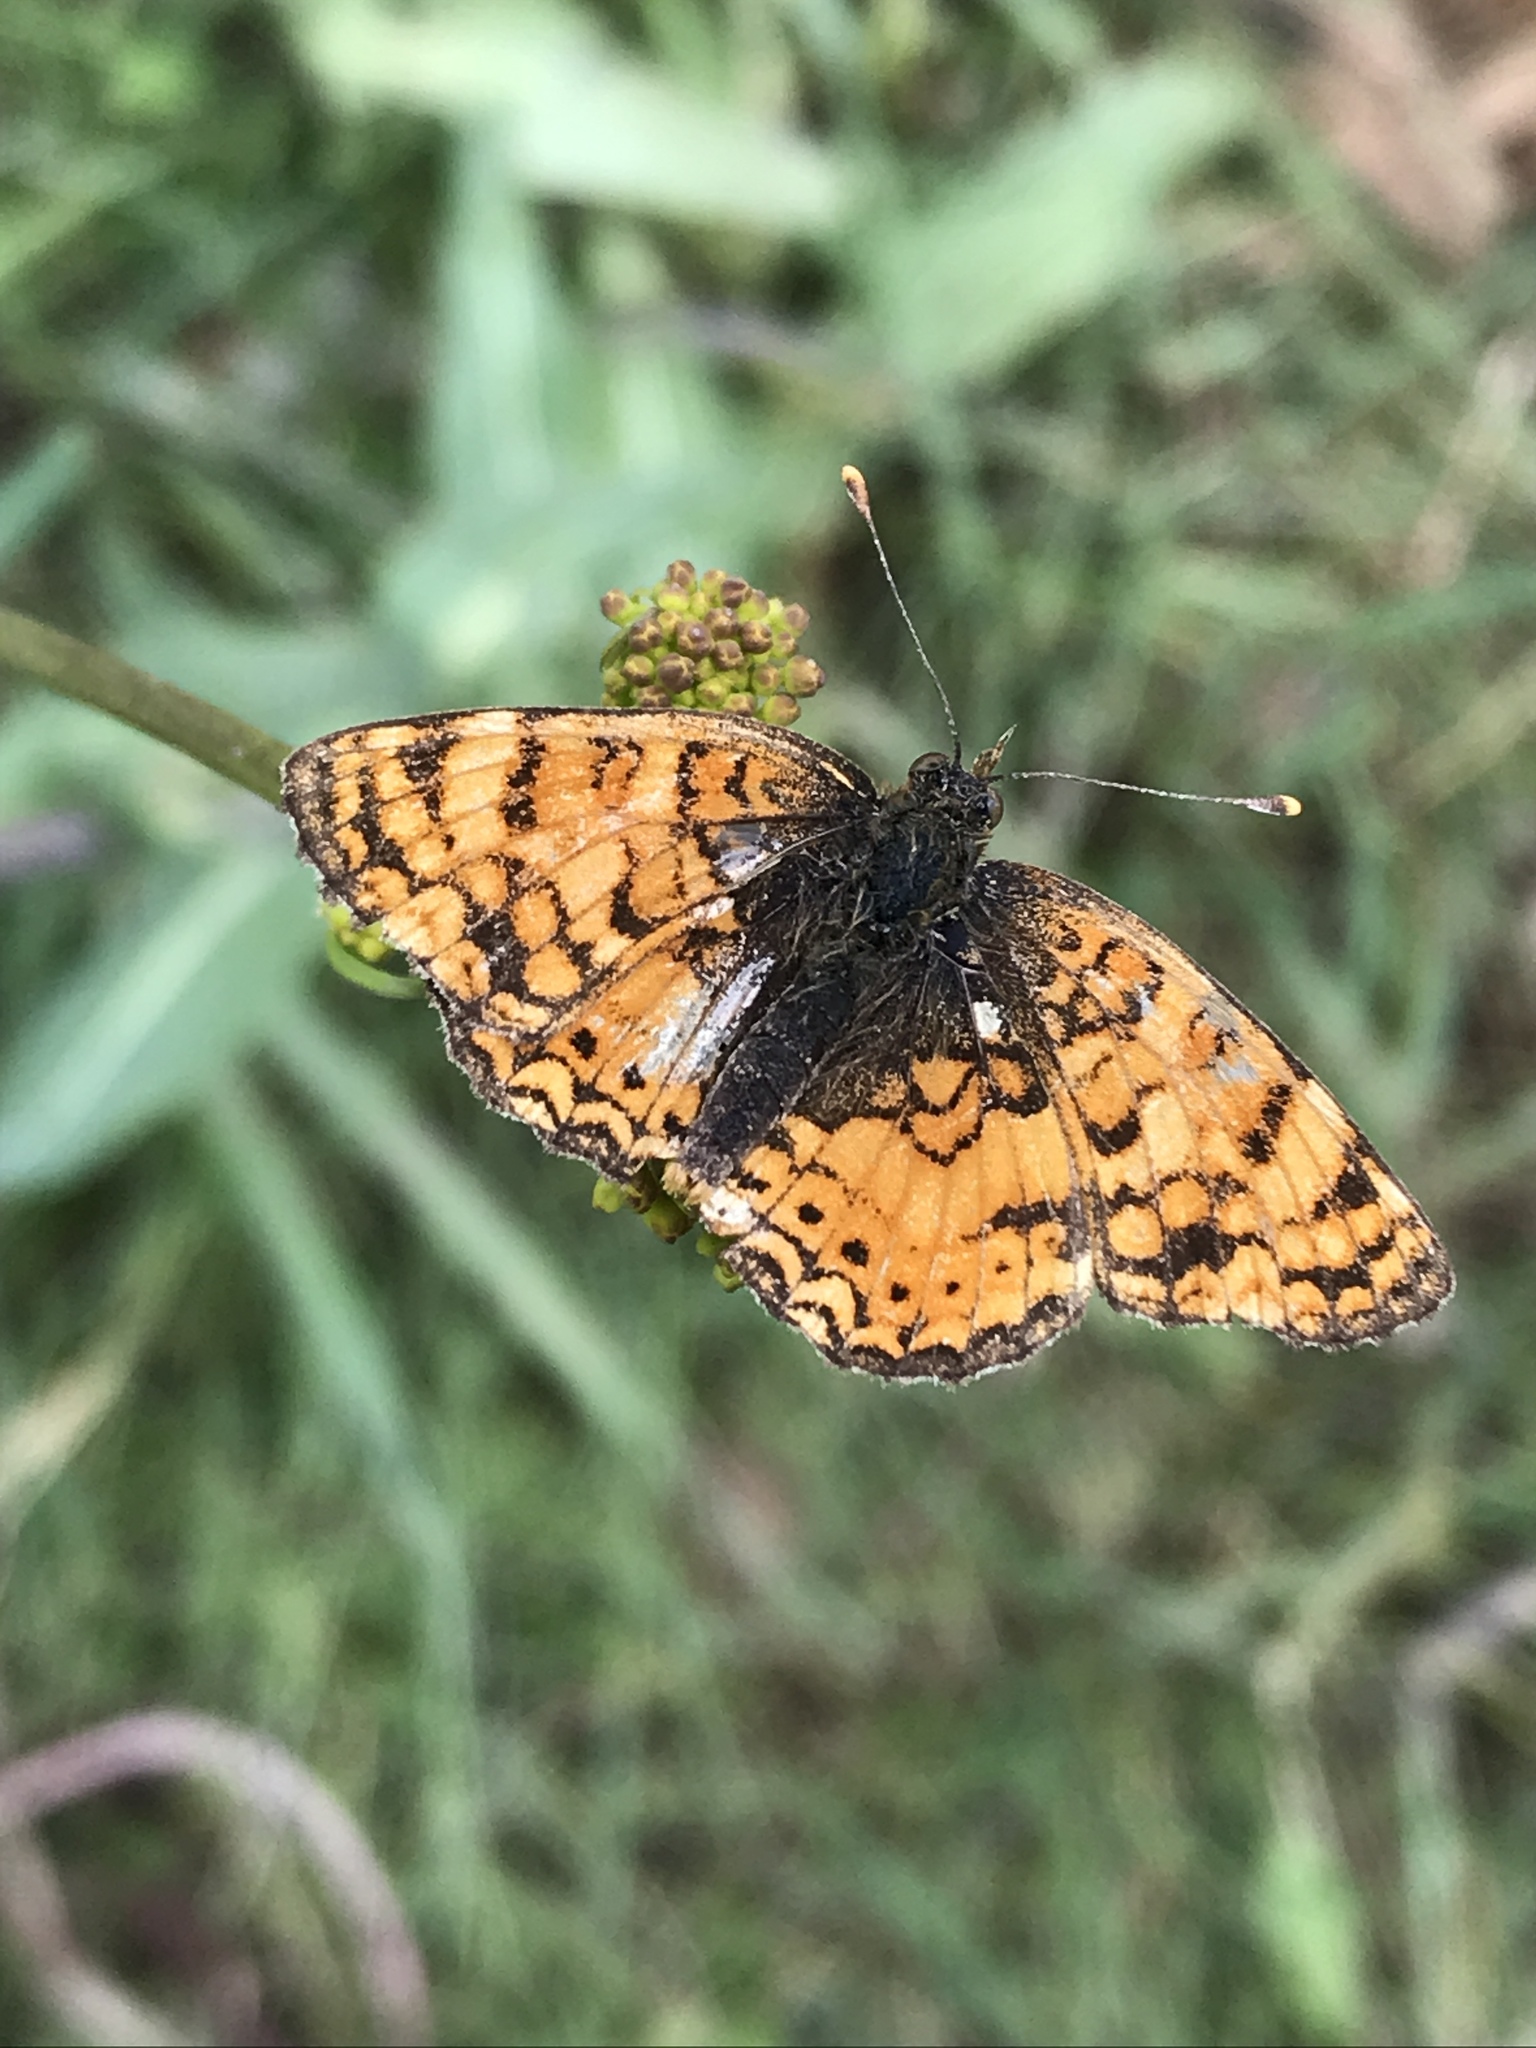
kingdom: Animalia
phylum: Arthropoda
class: Insecta
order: Lepidoptera
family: Nymphalidae
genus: Eresia
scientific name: Eresia aveyrona
